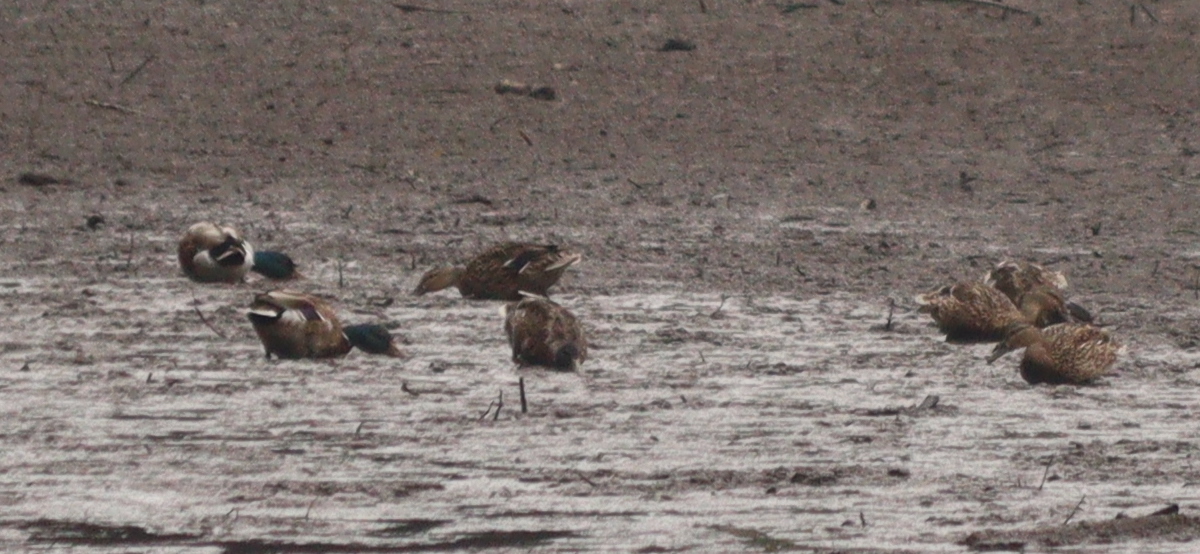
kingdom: Animalia
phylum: Chordata
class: Aves
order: Anseriformes
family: Anatidae
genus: Anas
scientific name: Anas platyrhynchos
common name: Mallard
